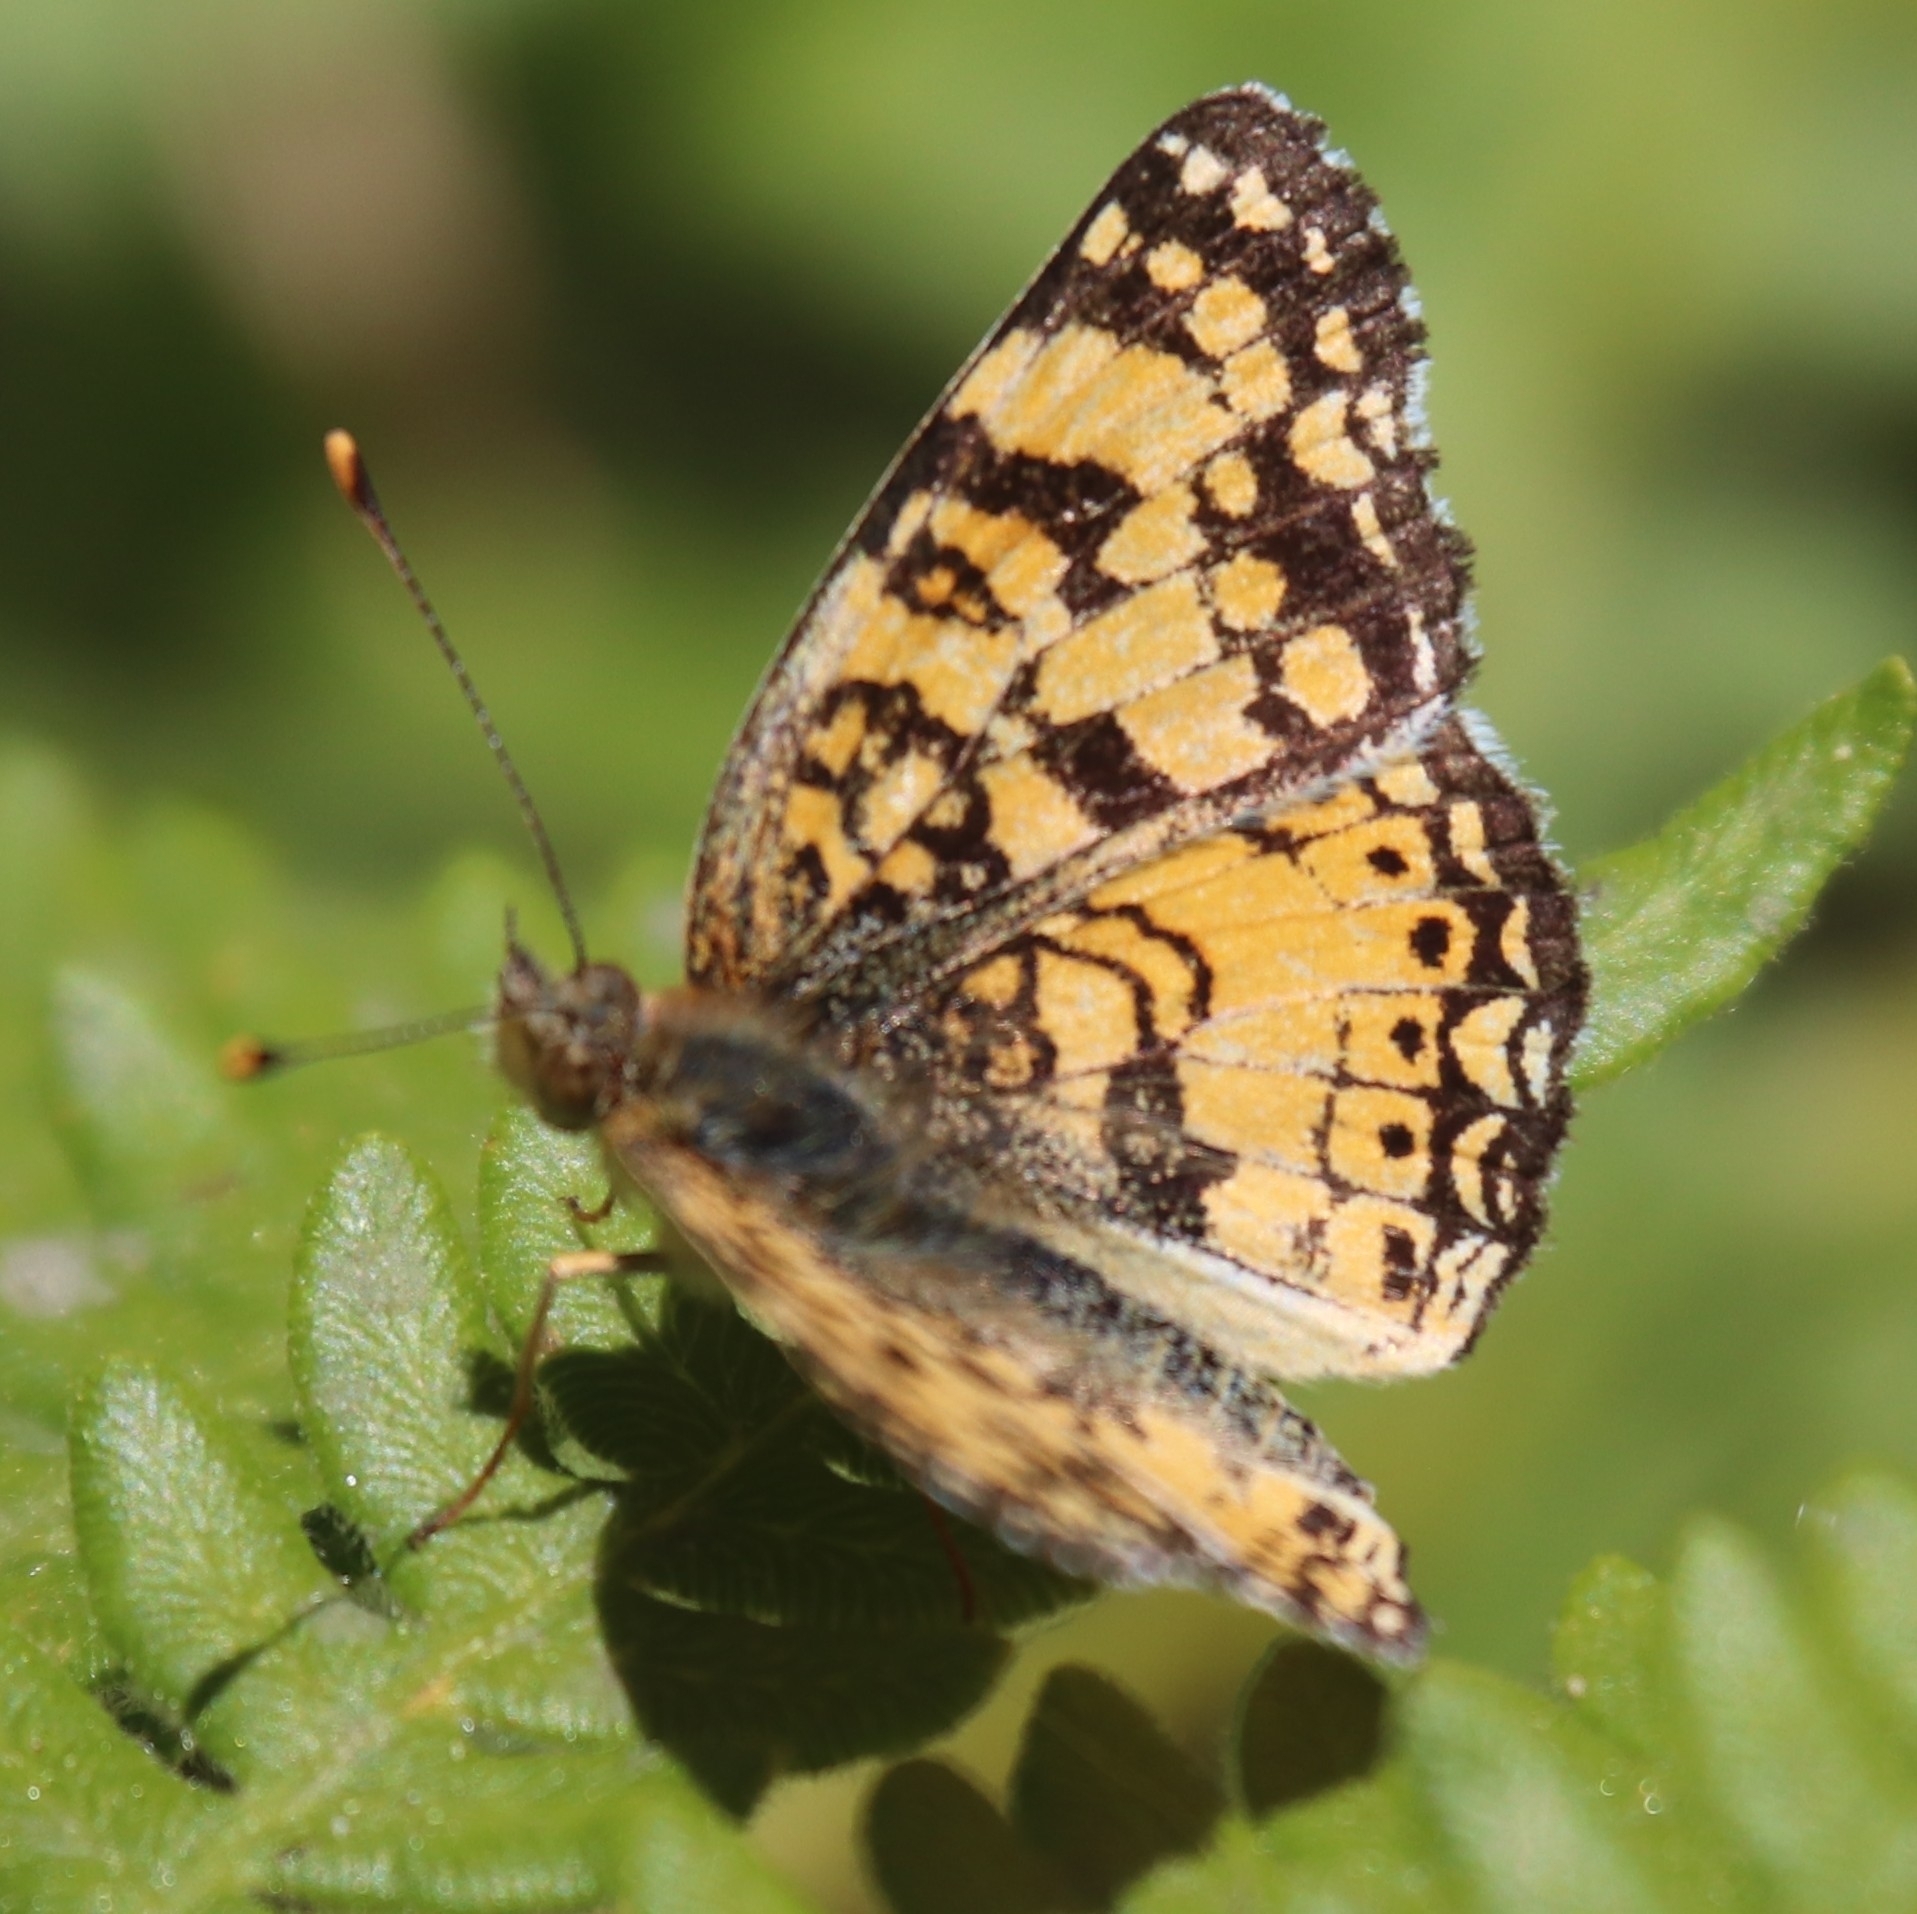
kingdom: Animalia
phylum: Arthropoda
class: Insecta
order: Lepidoptera
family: Nymphalidae
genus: Eresia
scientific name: Eresia aveyrona
